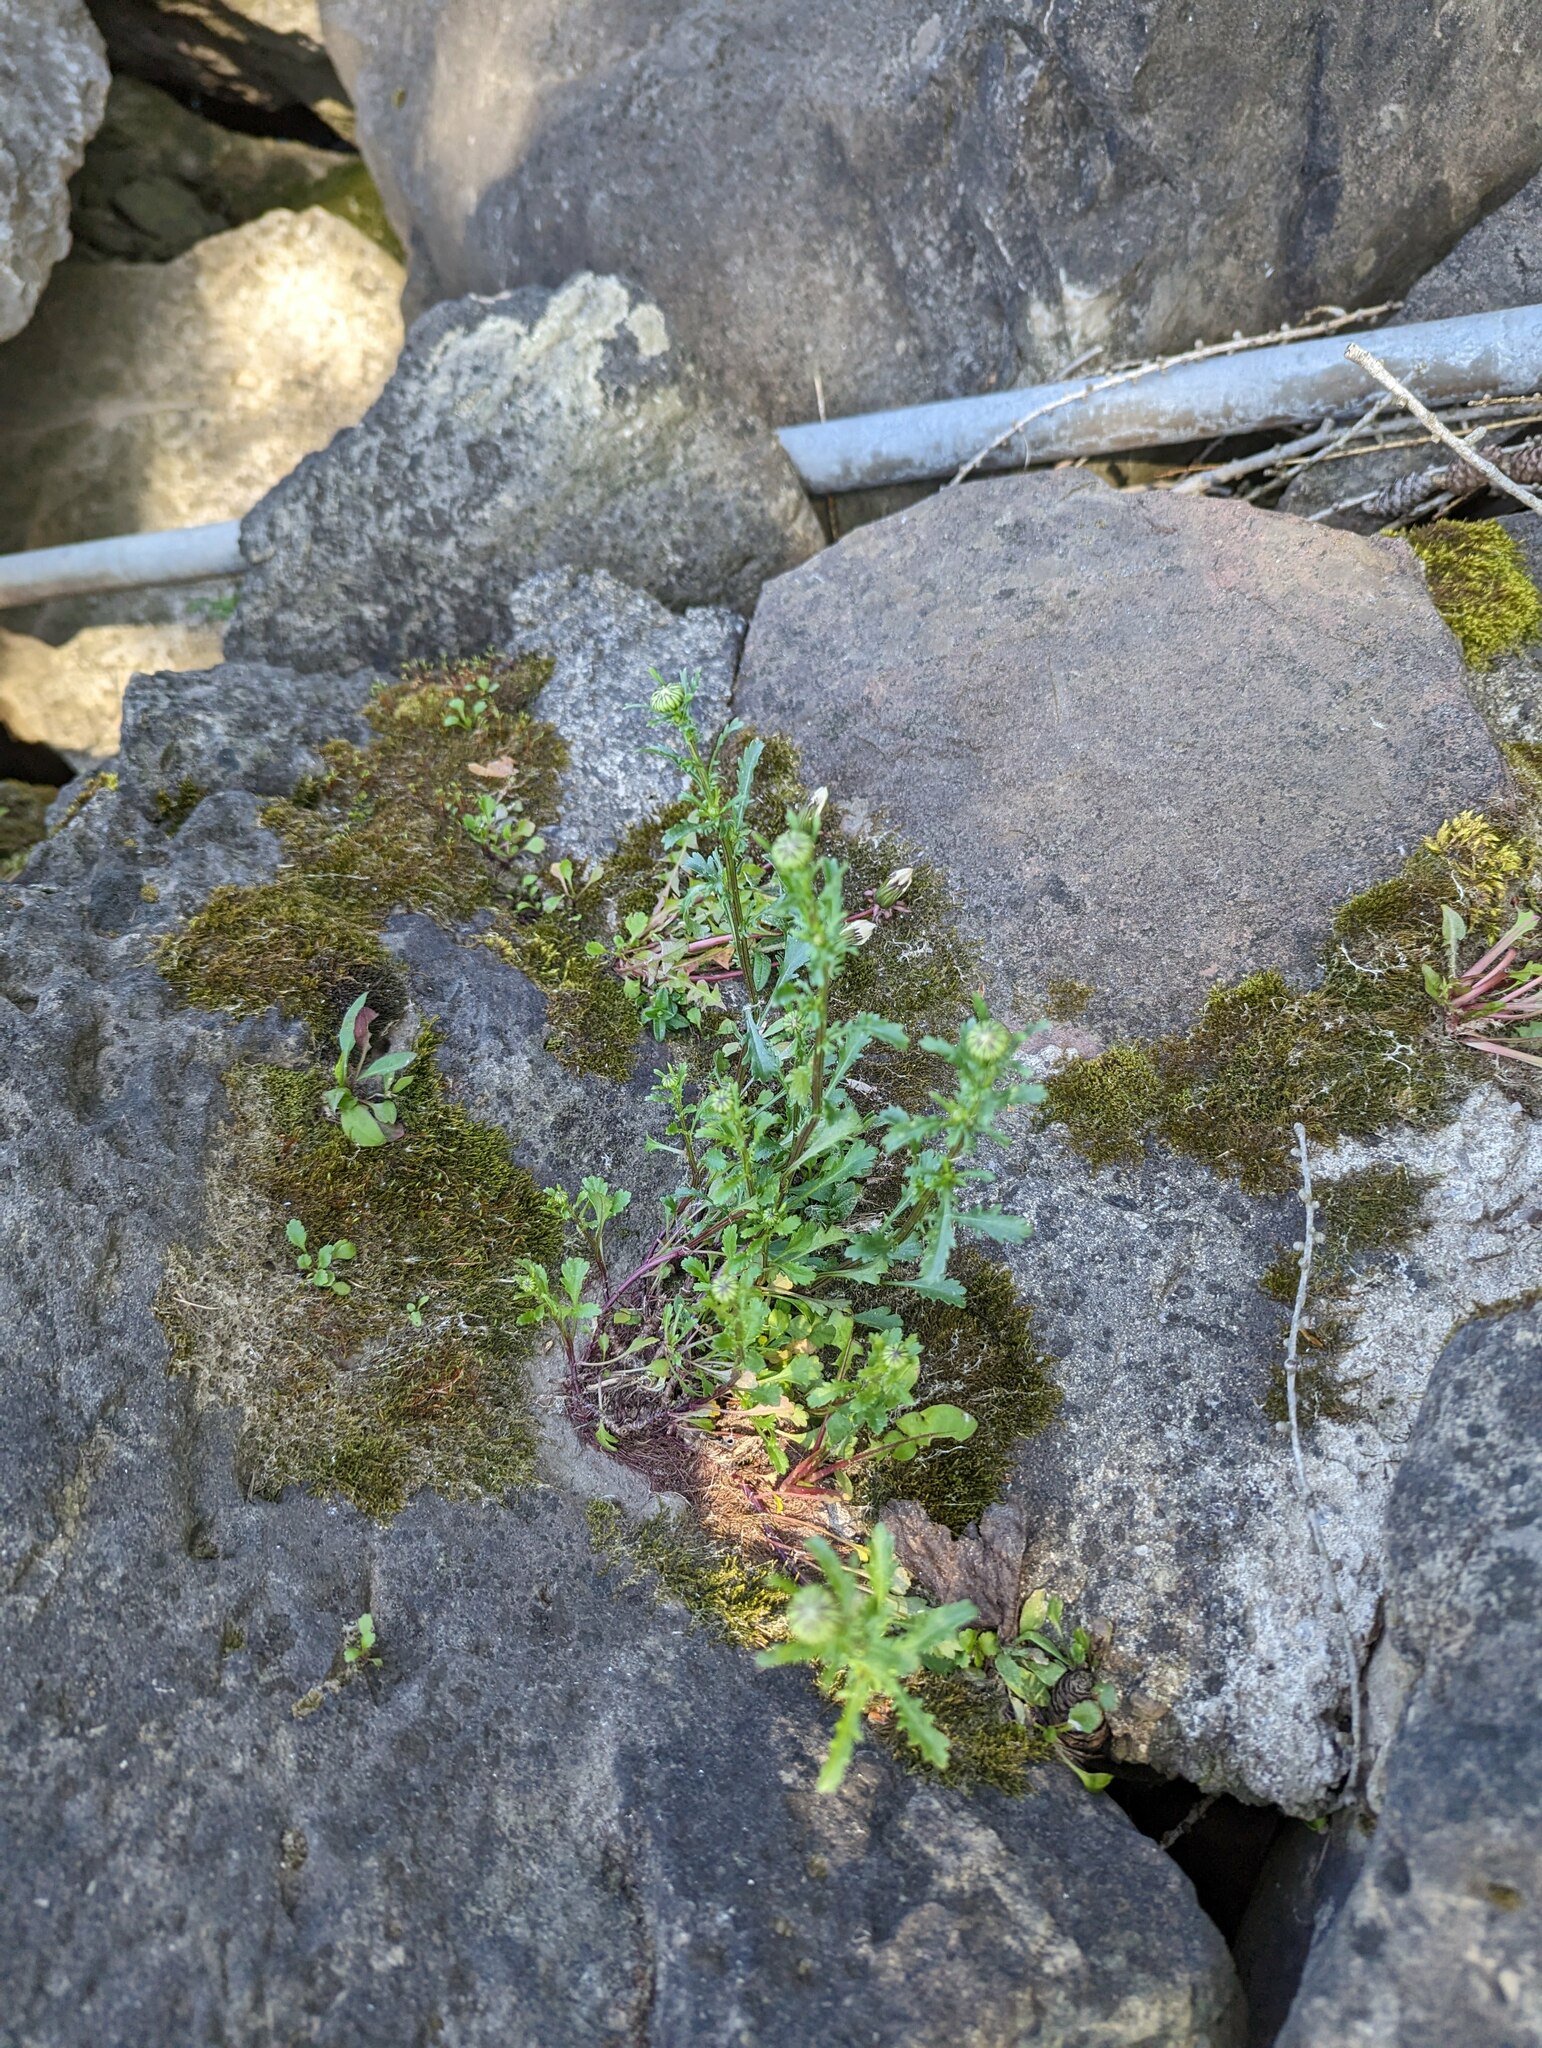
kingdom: Plantae
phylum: Tracheophyta
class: Magnoliopsida
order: Asterales
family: Asteraceae
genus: Leucanthemum
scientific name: Leucanthemum vulgare
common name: Oxeye daisy
